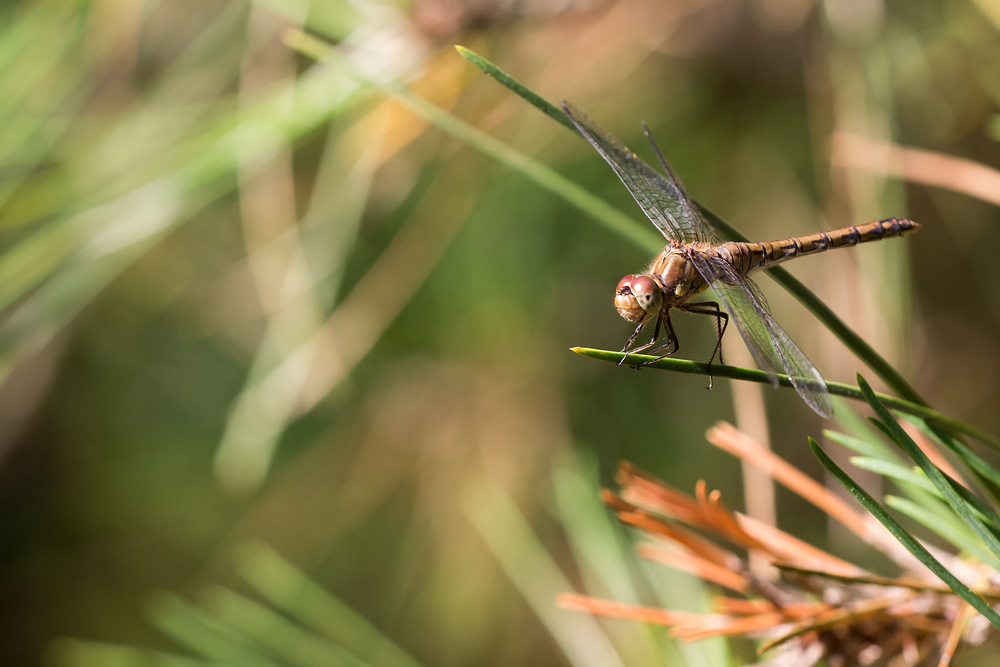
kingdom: Animalia
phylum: Arthropoda
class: Insecta
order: Odonata
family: Libellulidae
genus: Sympetrum
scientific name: Sympetrum striolatum
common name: Common darter
